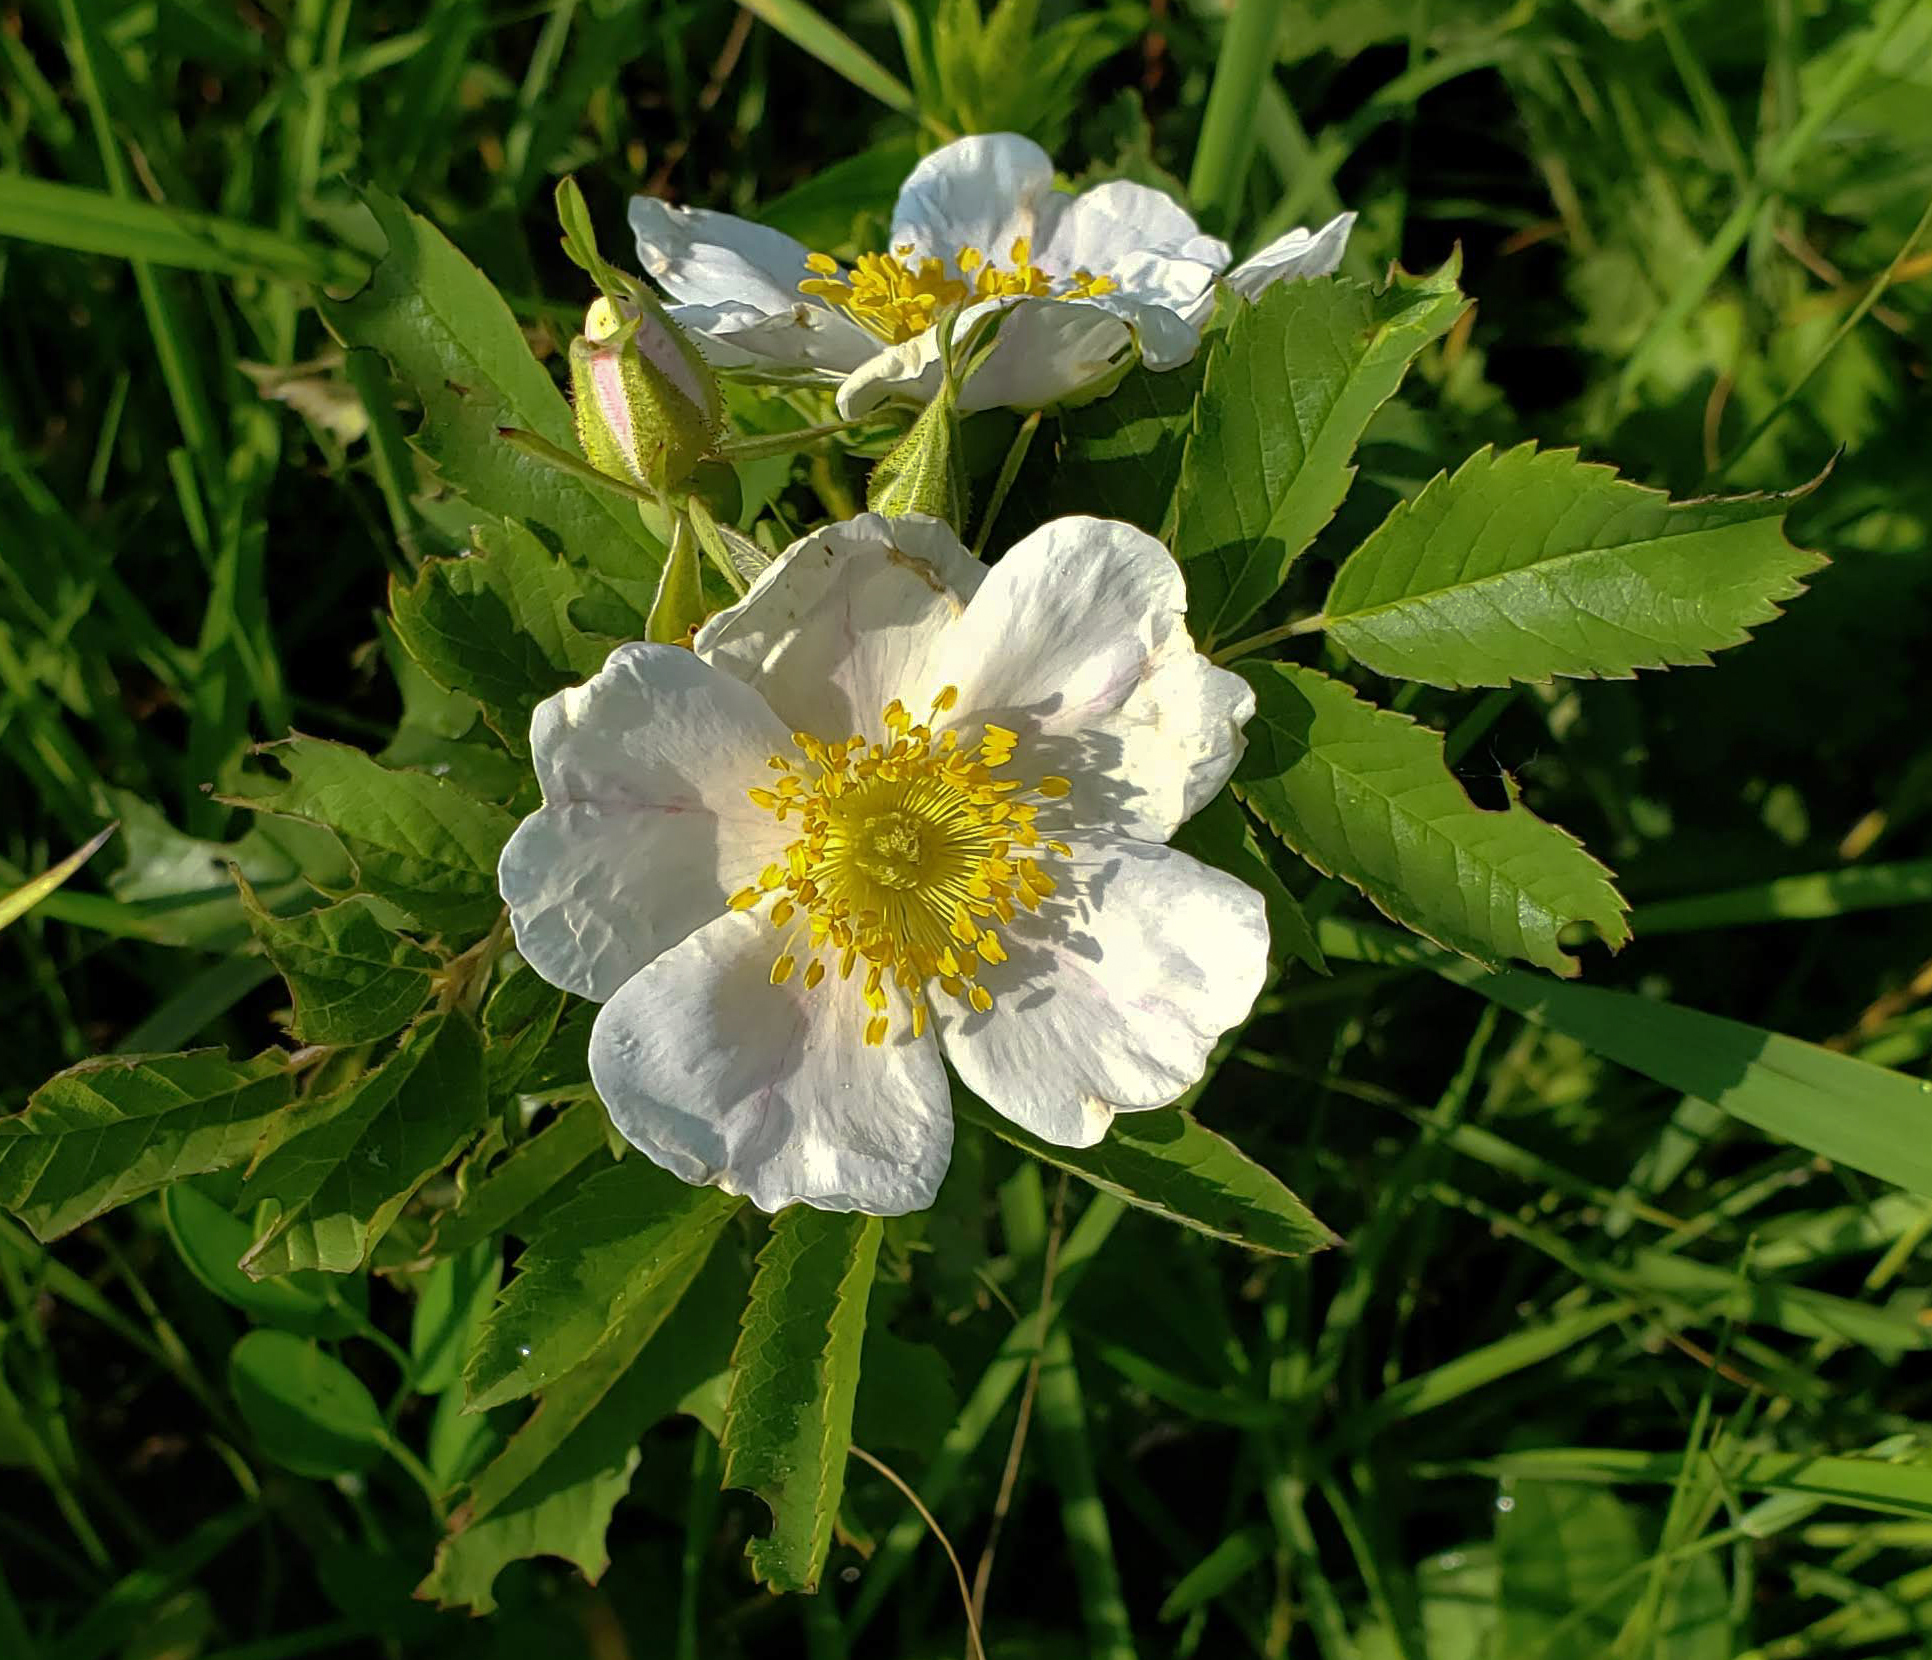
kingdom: Plantae
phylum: Tracheophyta
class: Magnoliopsida
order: Rosales
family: Rosaceae
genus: Rosa
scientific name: Rosa arkansana
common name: Prairie rose
